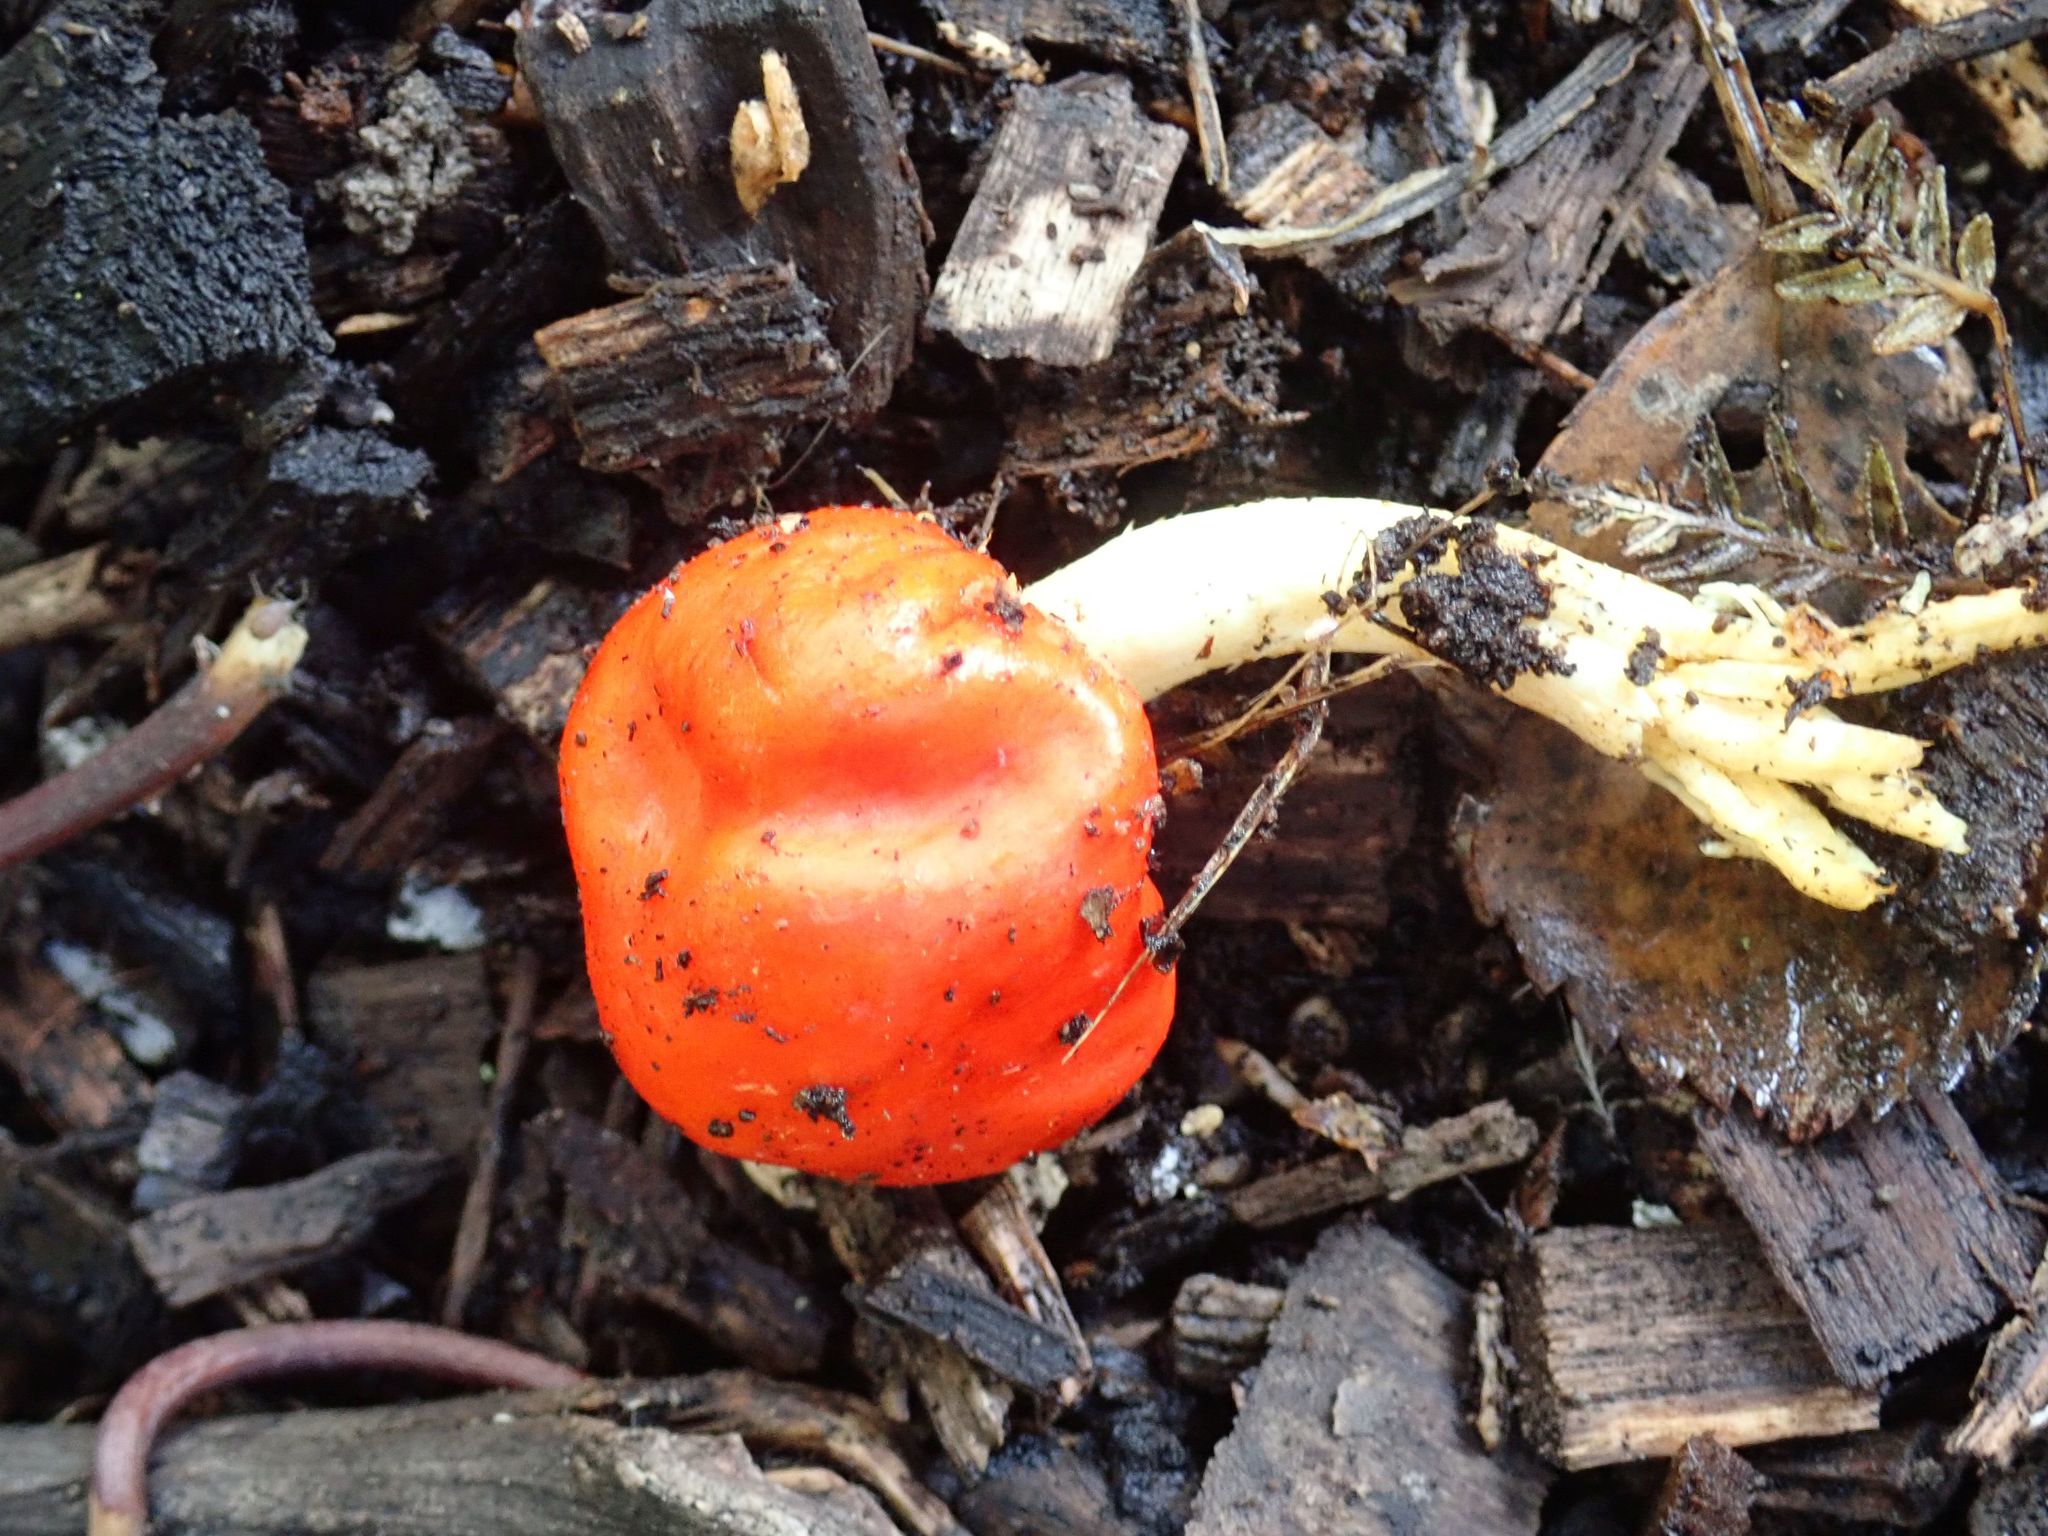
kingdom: Fungi
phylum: Basidiomycota
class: Agaricomycetes
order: Agaricales
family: Strophariaceae
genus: Leratiomyces
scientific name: Leratiomyces erythrocephalus
